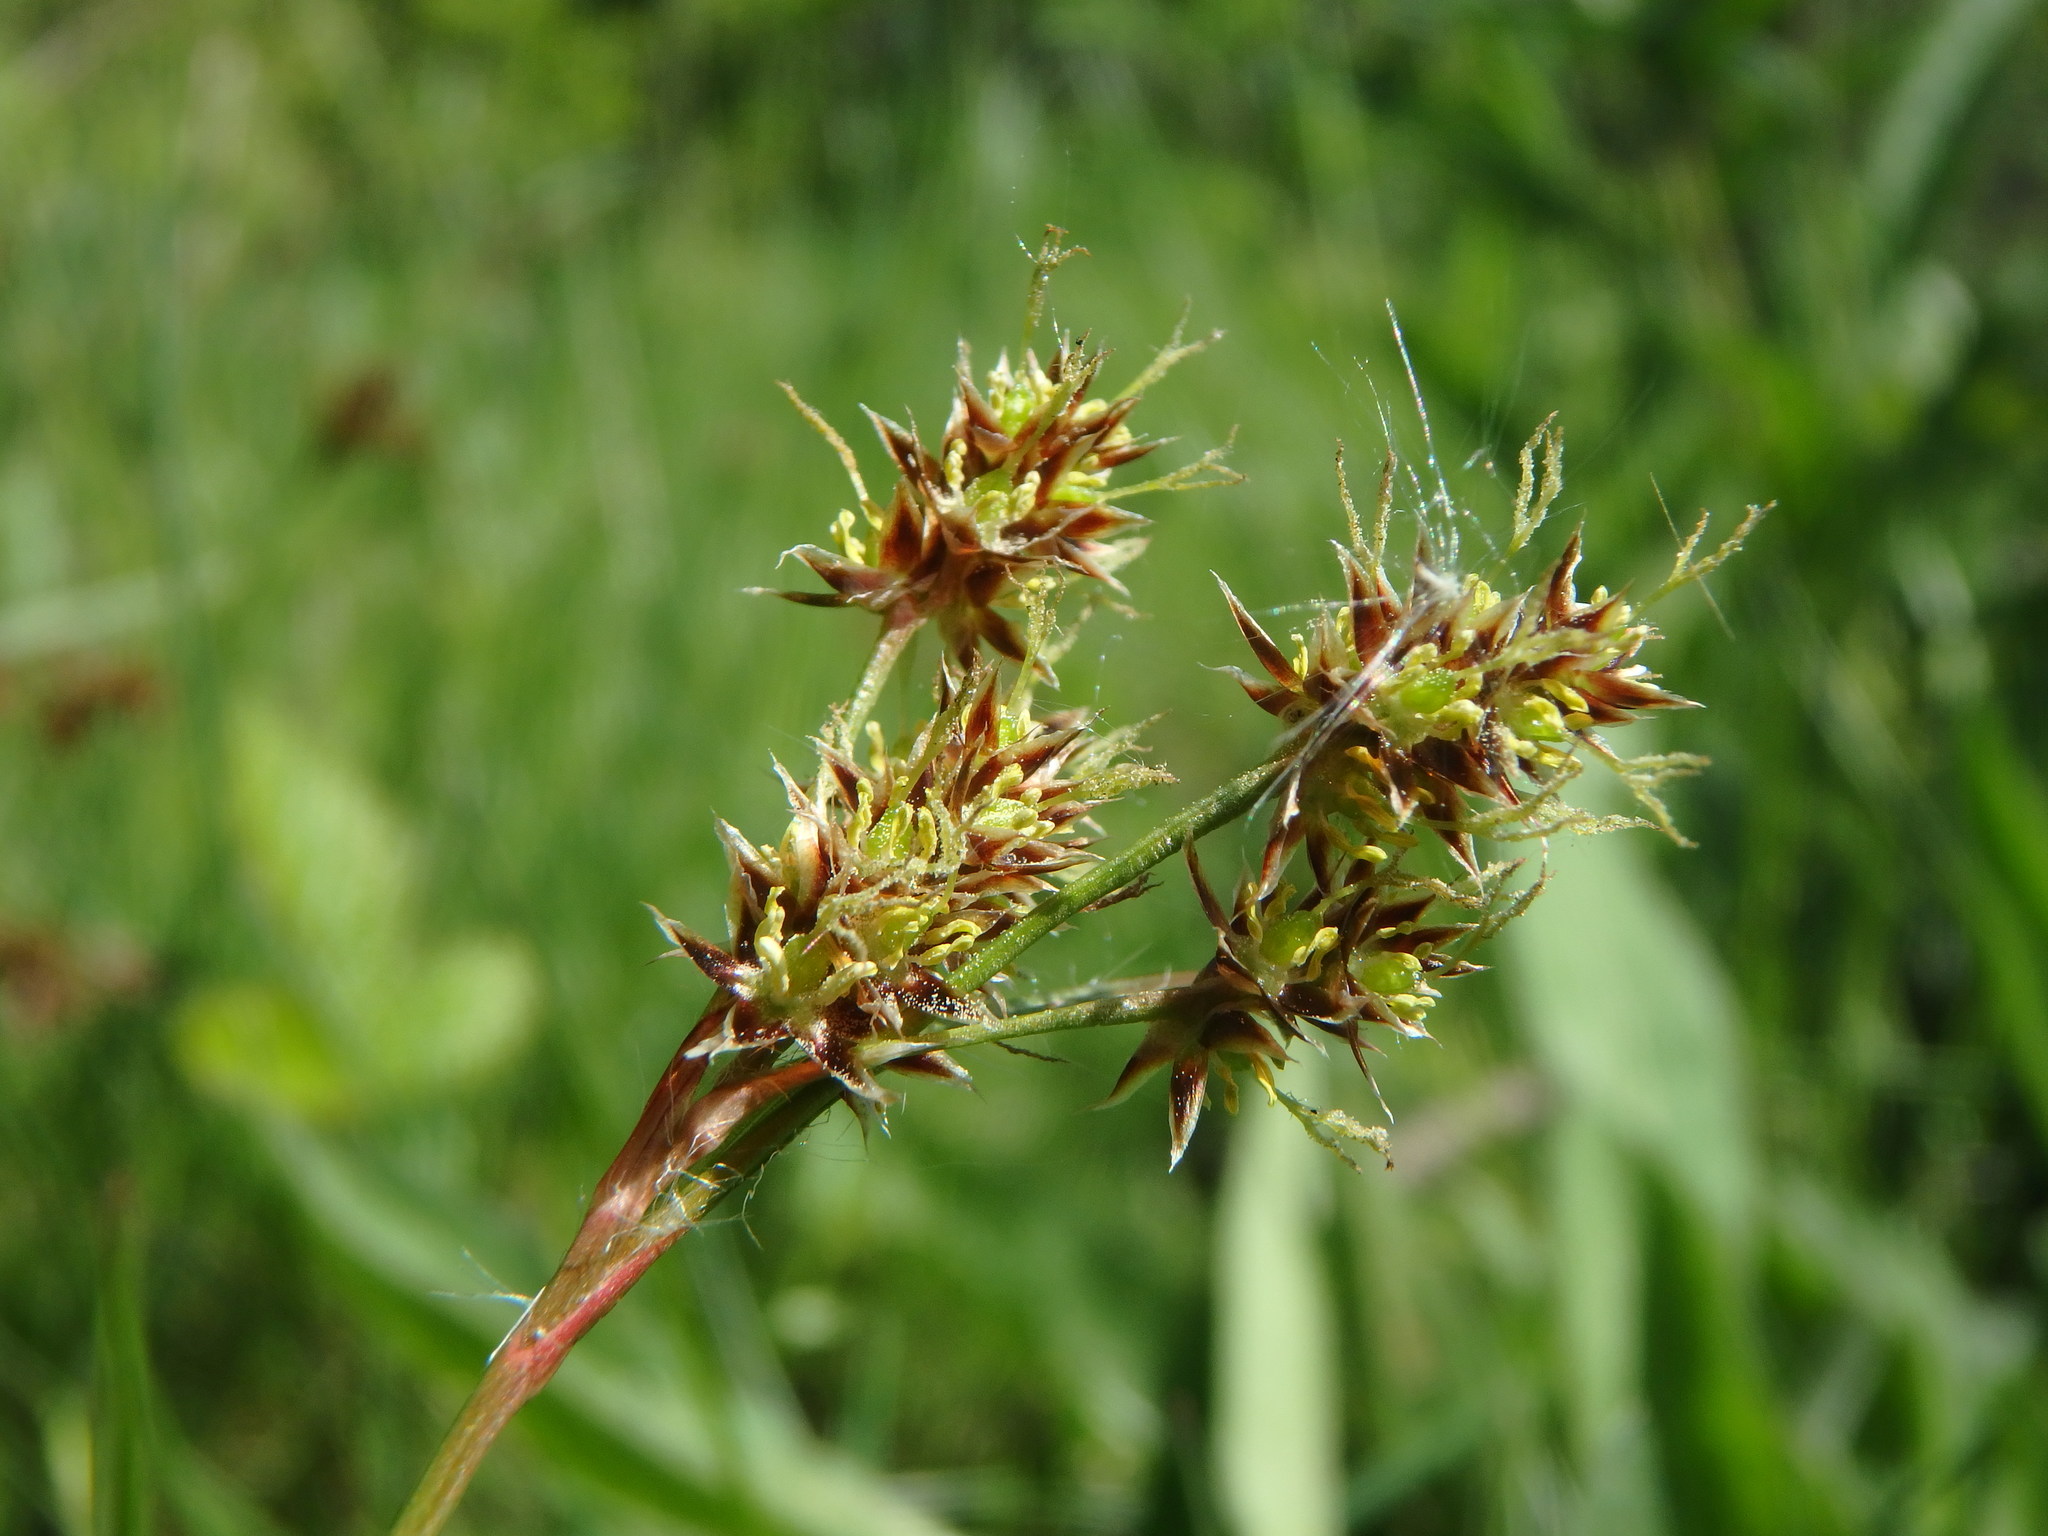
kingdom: Plantae
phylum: Tracheophyta
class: Liliopsida
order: Poales
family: Juncaceae
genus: Luzula
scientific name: Luzula campestris
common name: Field wood-rush
